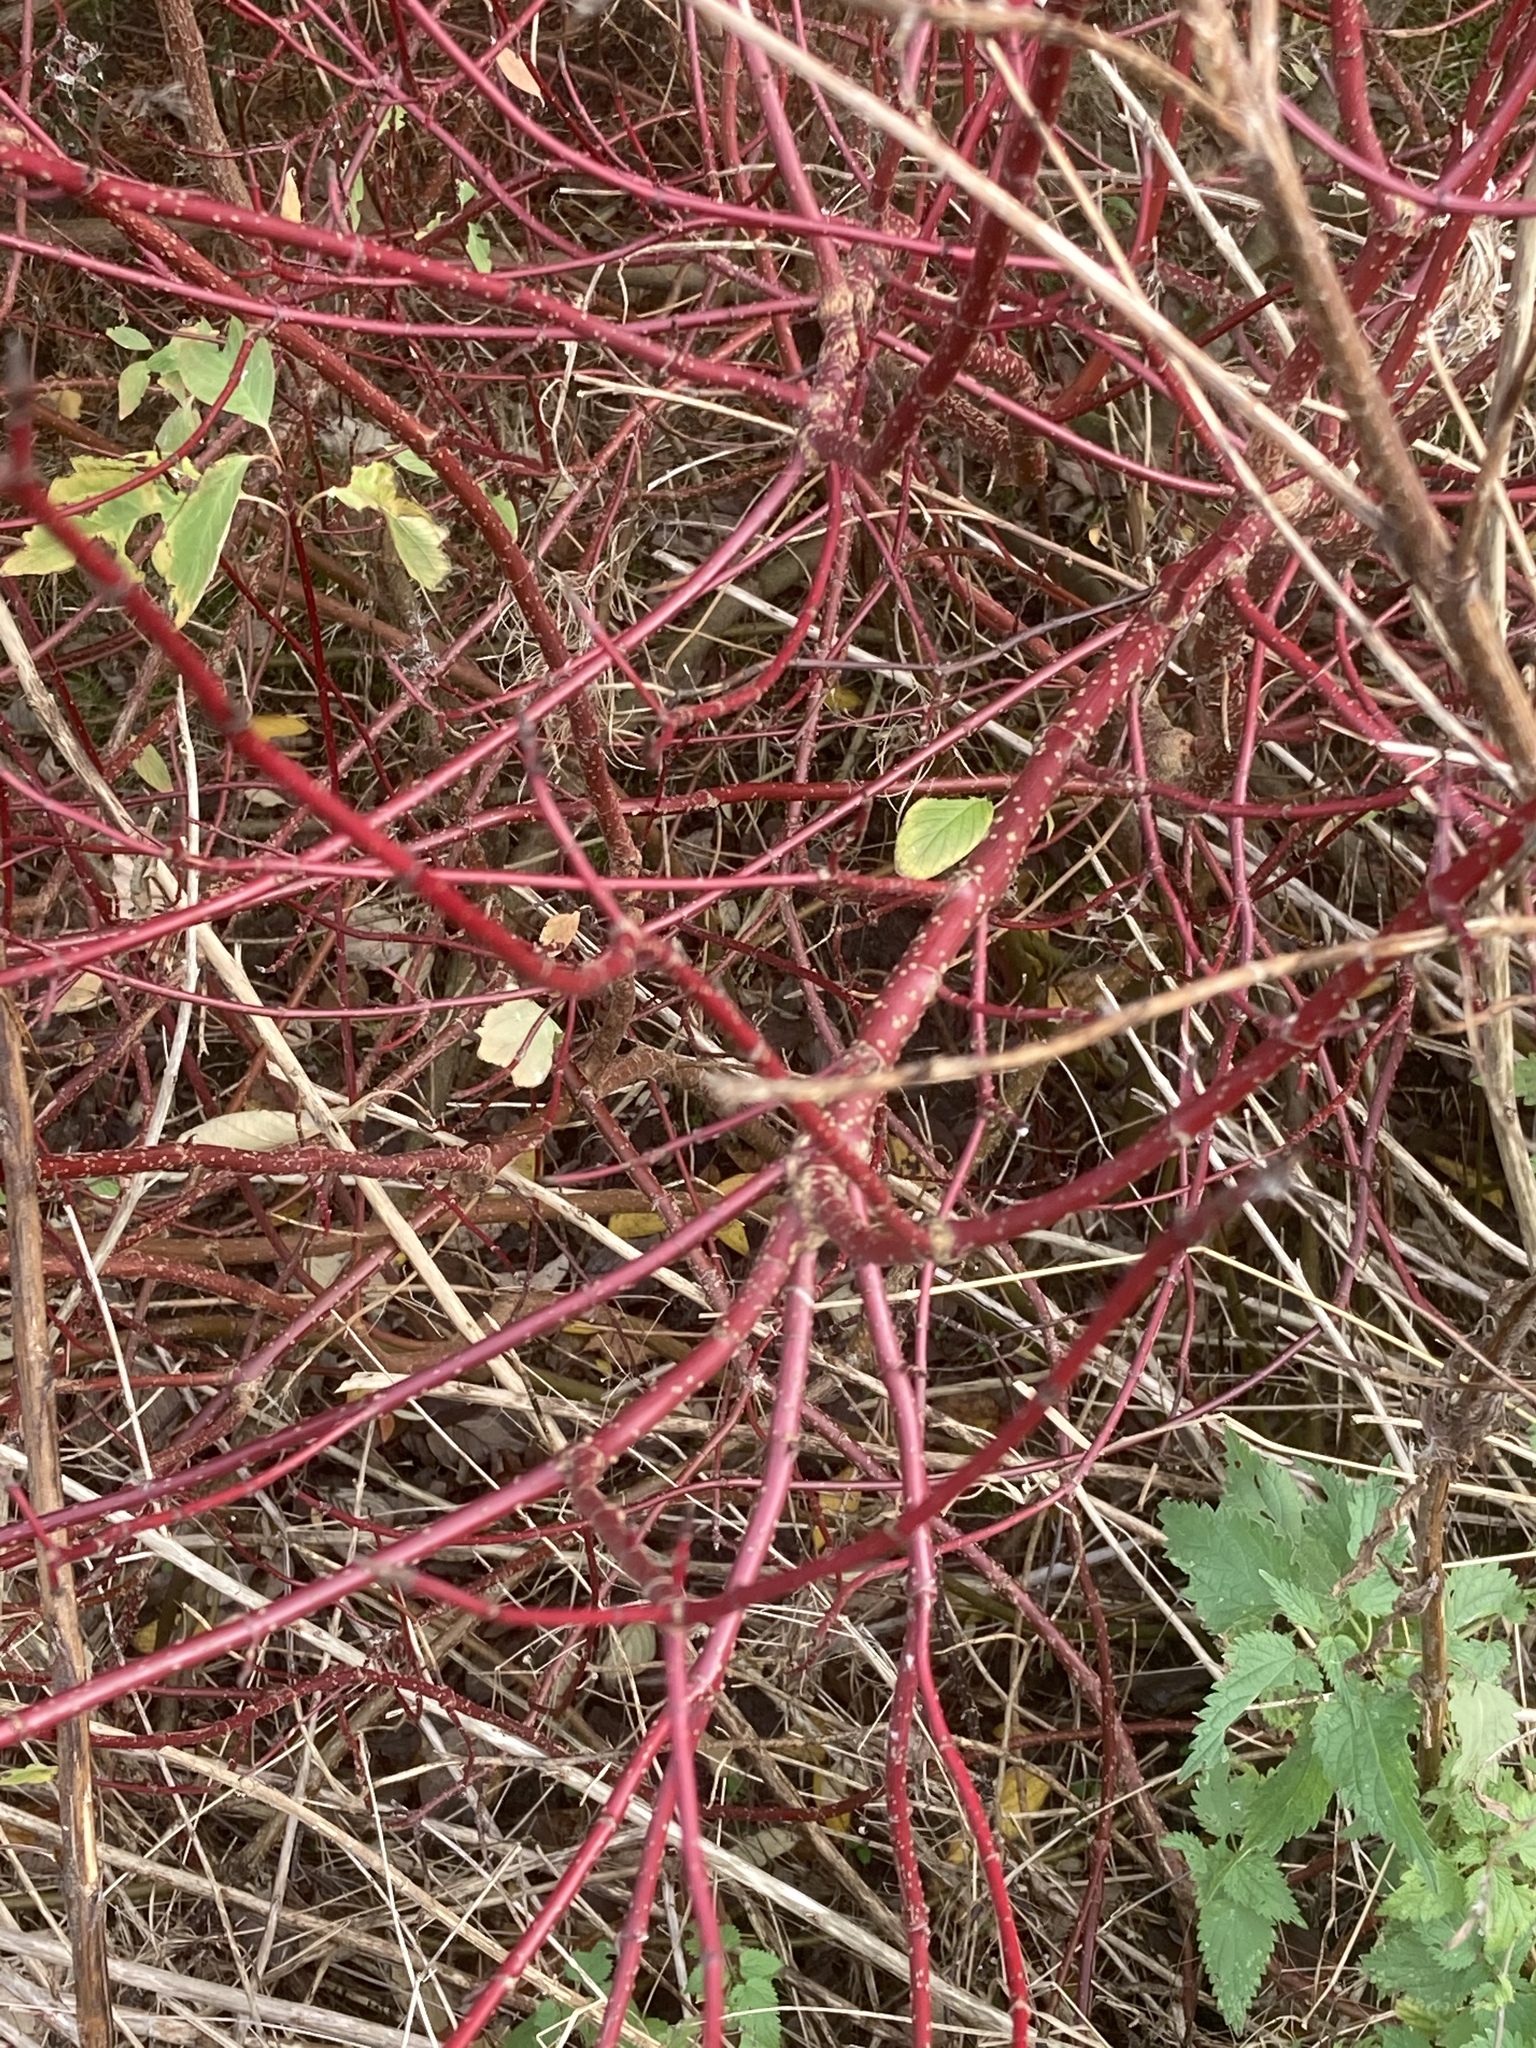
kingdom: Plantae
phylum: Tracheophyta
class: Magnoliopsida
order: Cornales
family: Cornaceae
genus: Cornus
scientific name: Cornus sanguinea
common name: Dogwood
